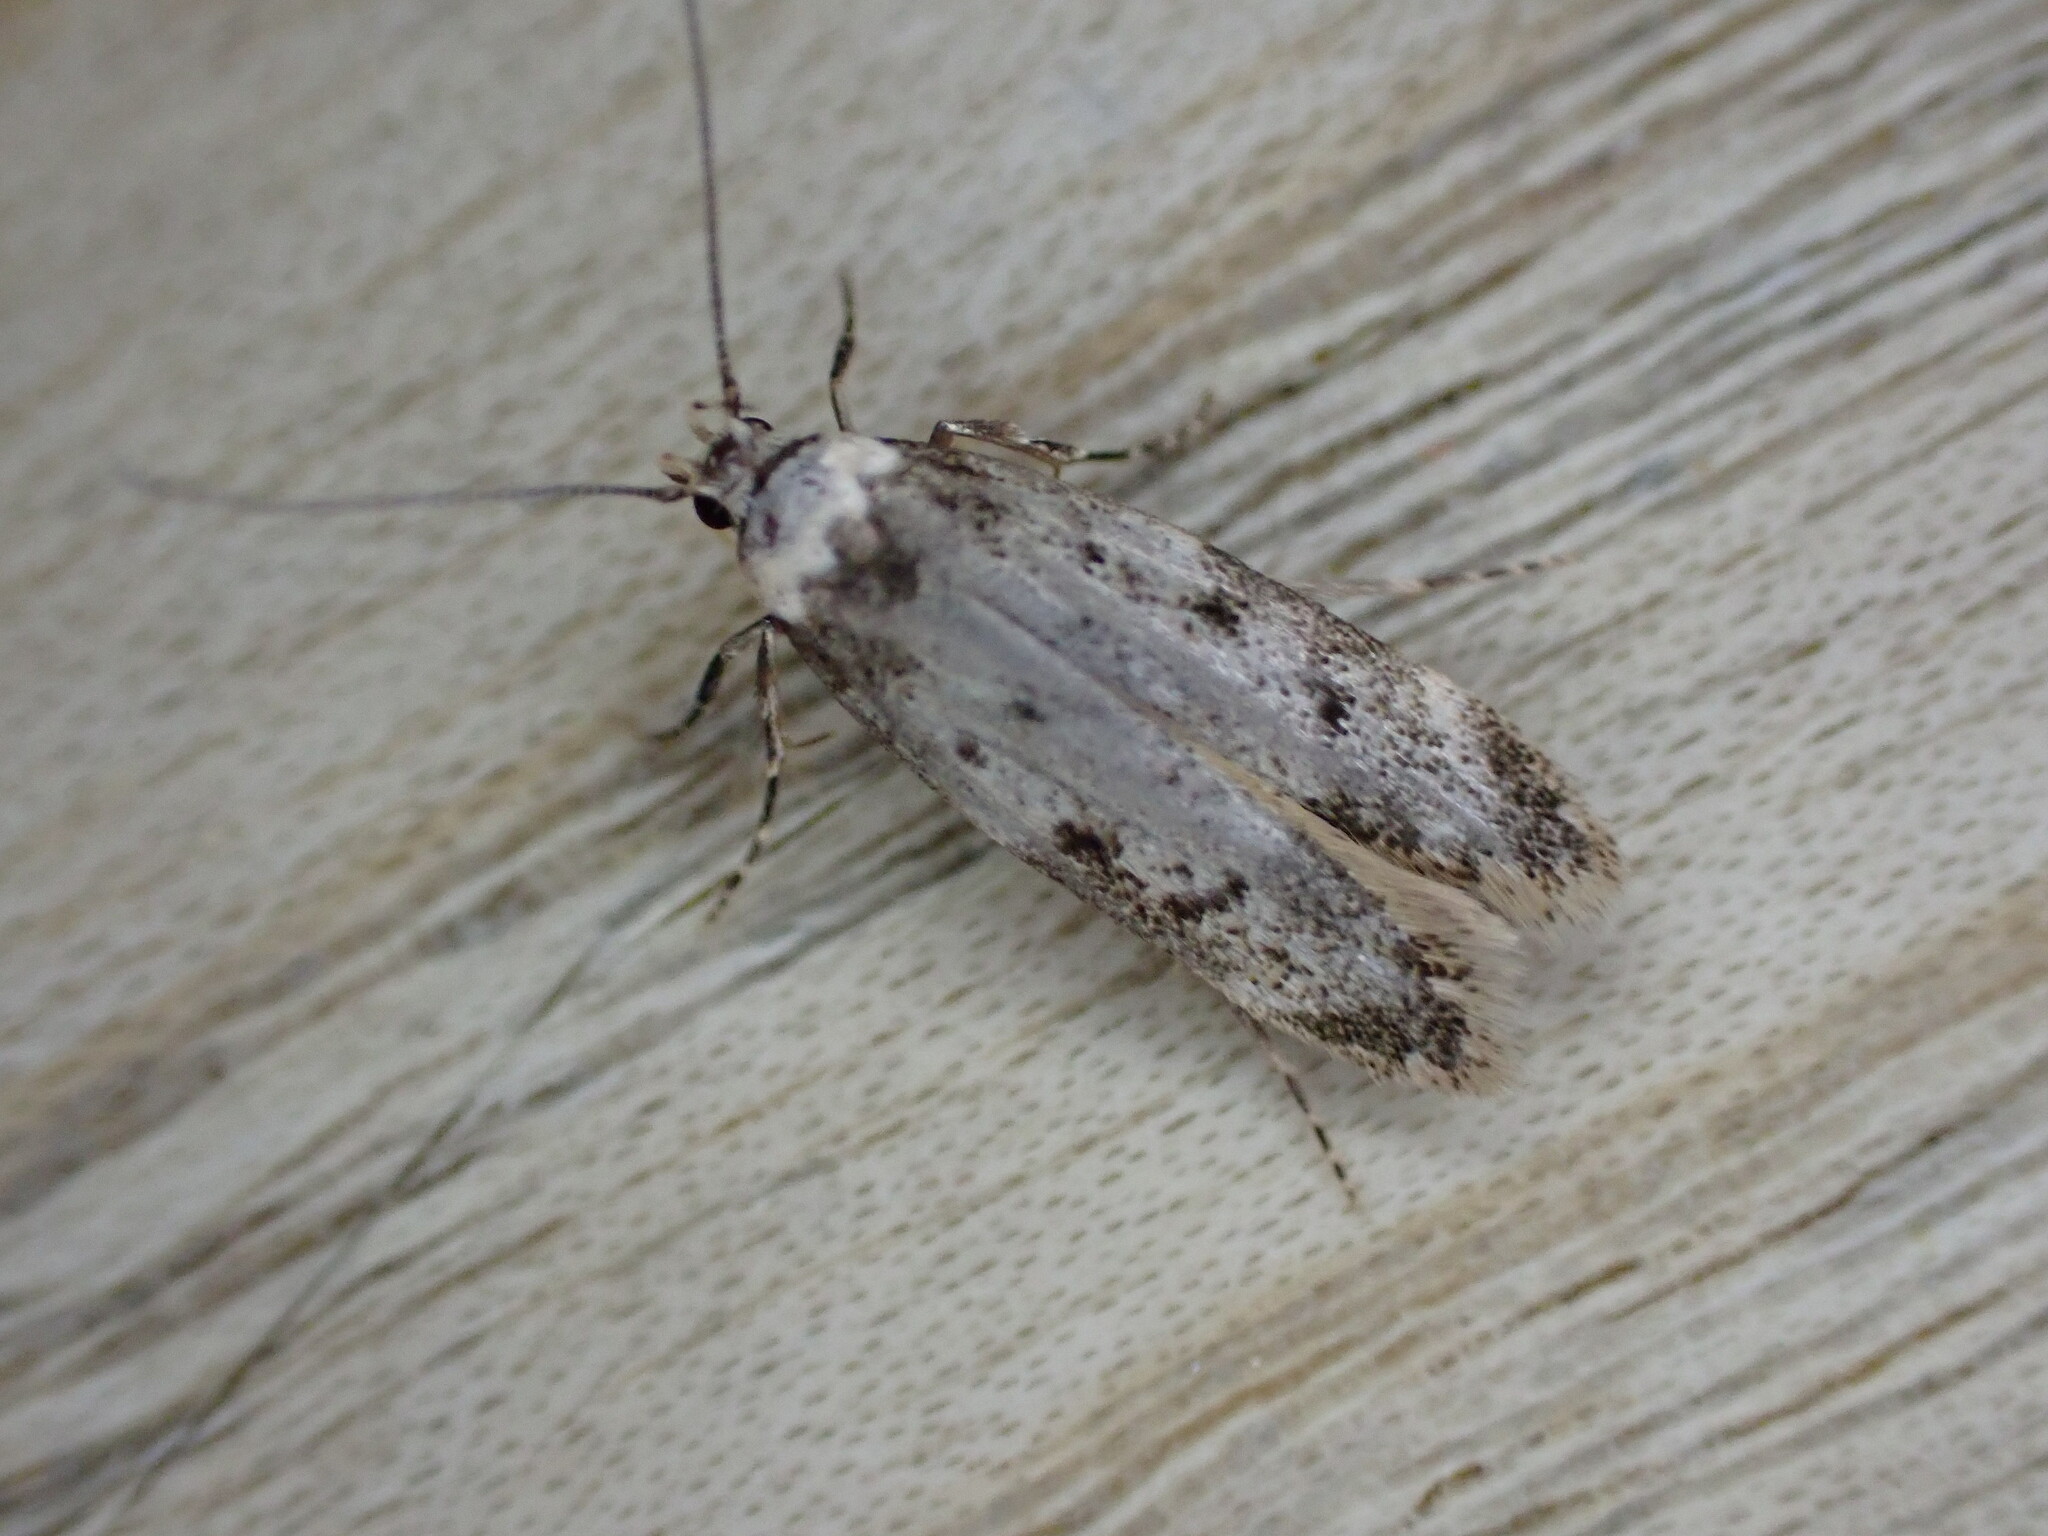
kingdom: Animalia
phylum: Arthropoda
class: Insecta
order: Lepidoptera
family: Oecophoridae
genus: Endrosis
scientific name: Endrosis sarcitrella
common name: White-shouldered house moth
